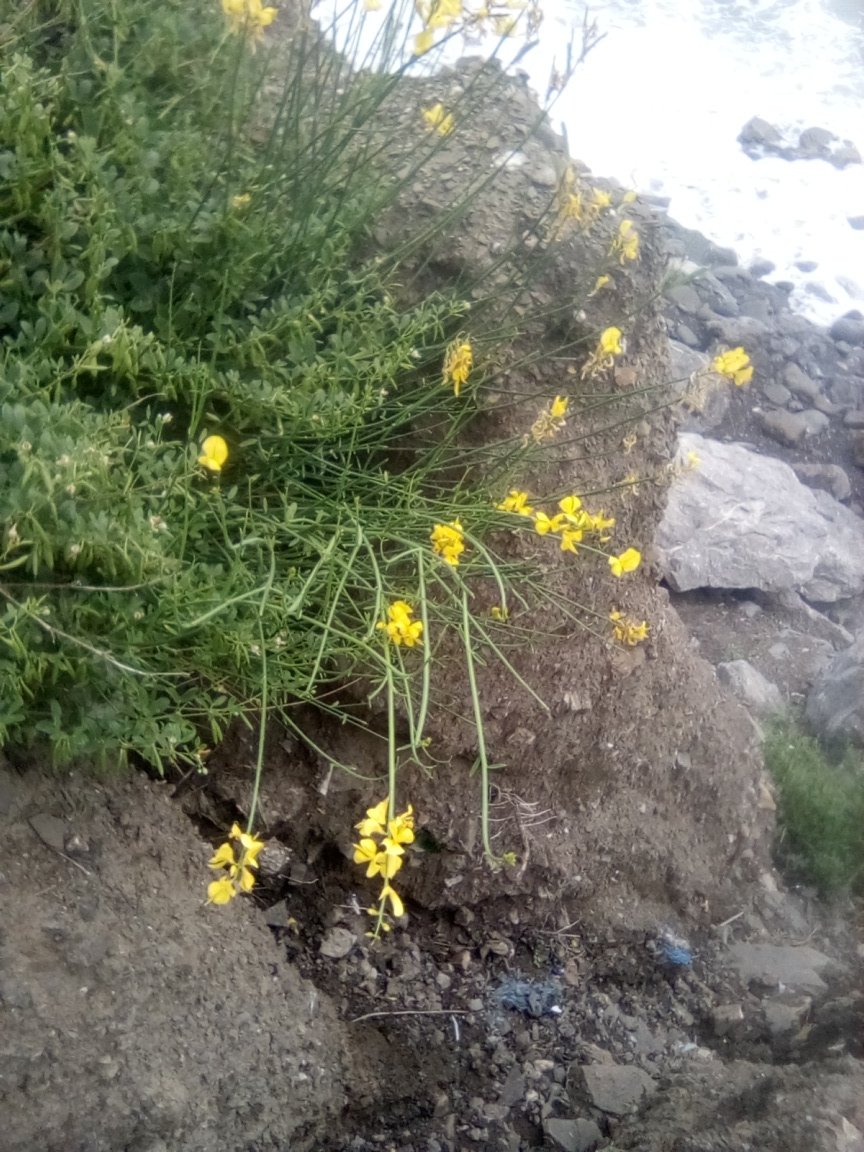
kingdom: Plantae
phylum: Tracheophyta
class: Magnoliopsida
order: Fabales
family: Fabaceae
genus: Spartium
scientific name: Spartium junceum
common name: Spanish broom
